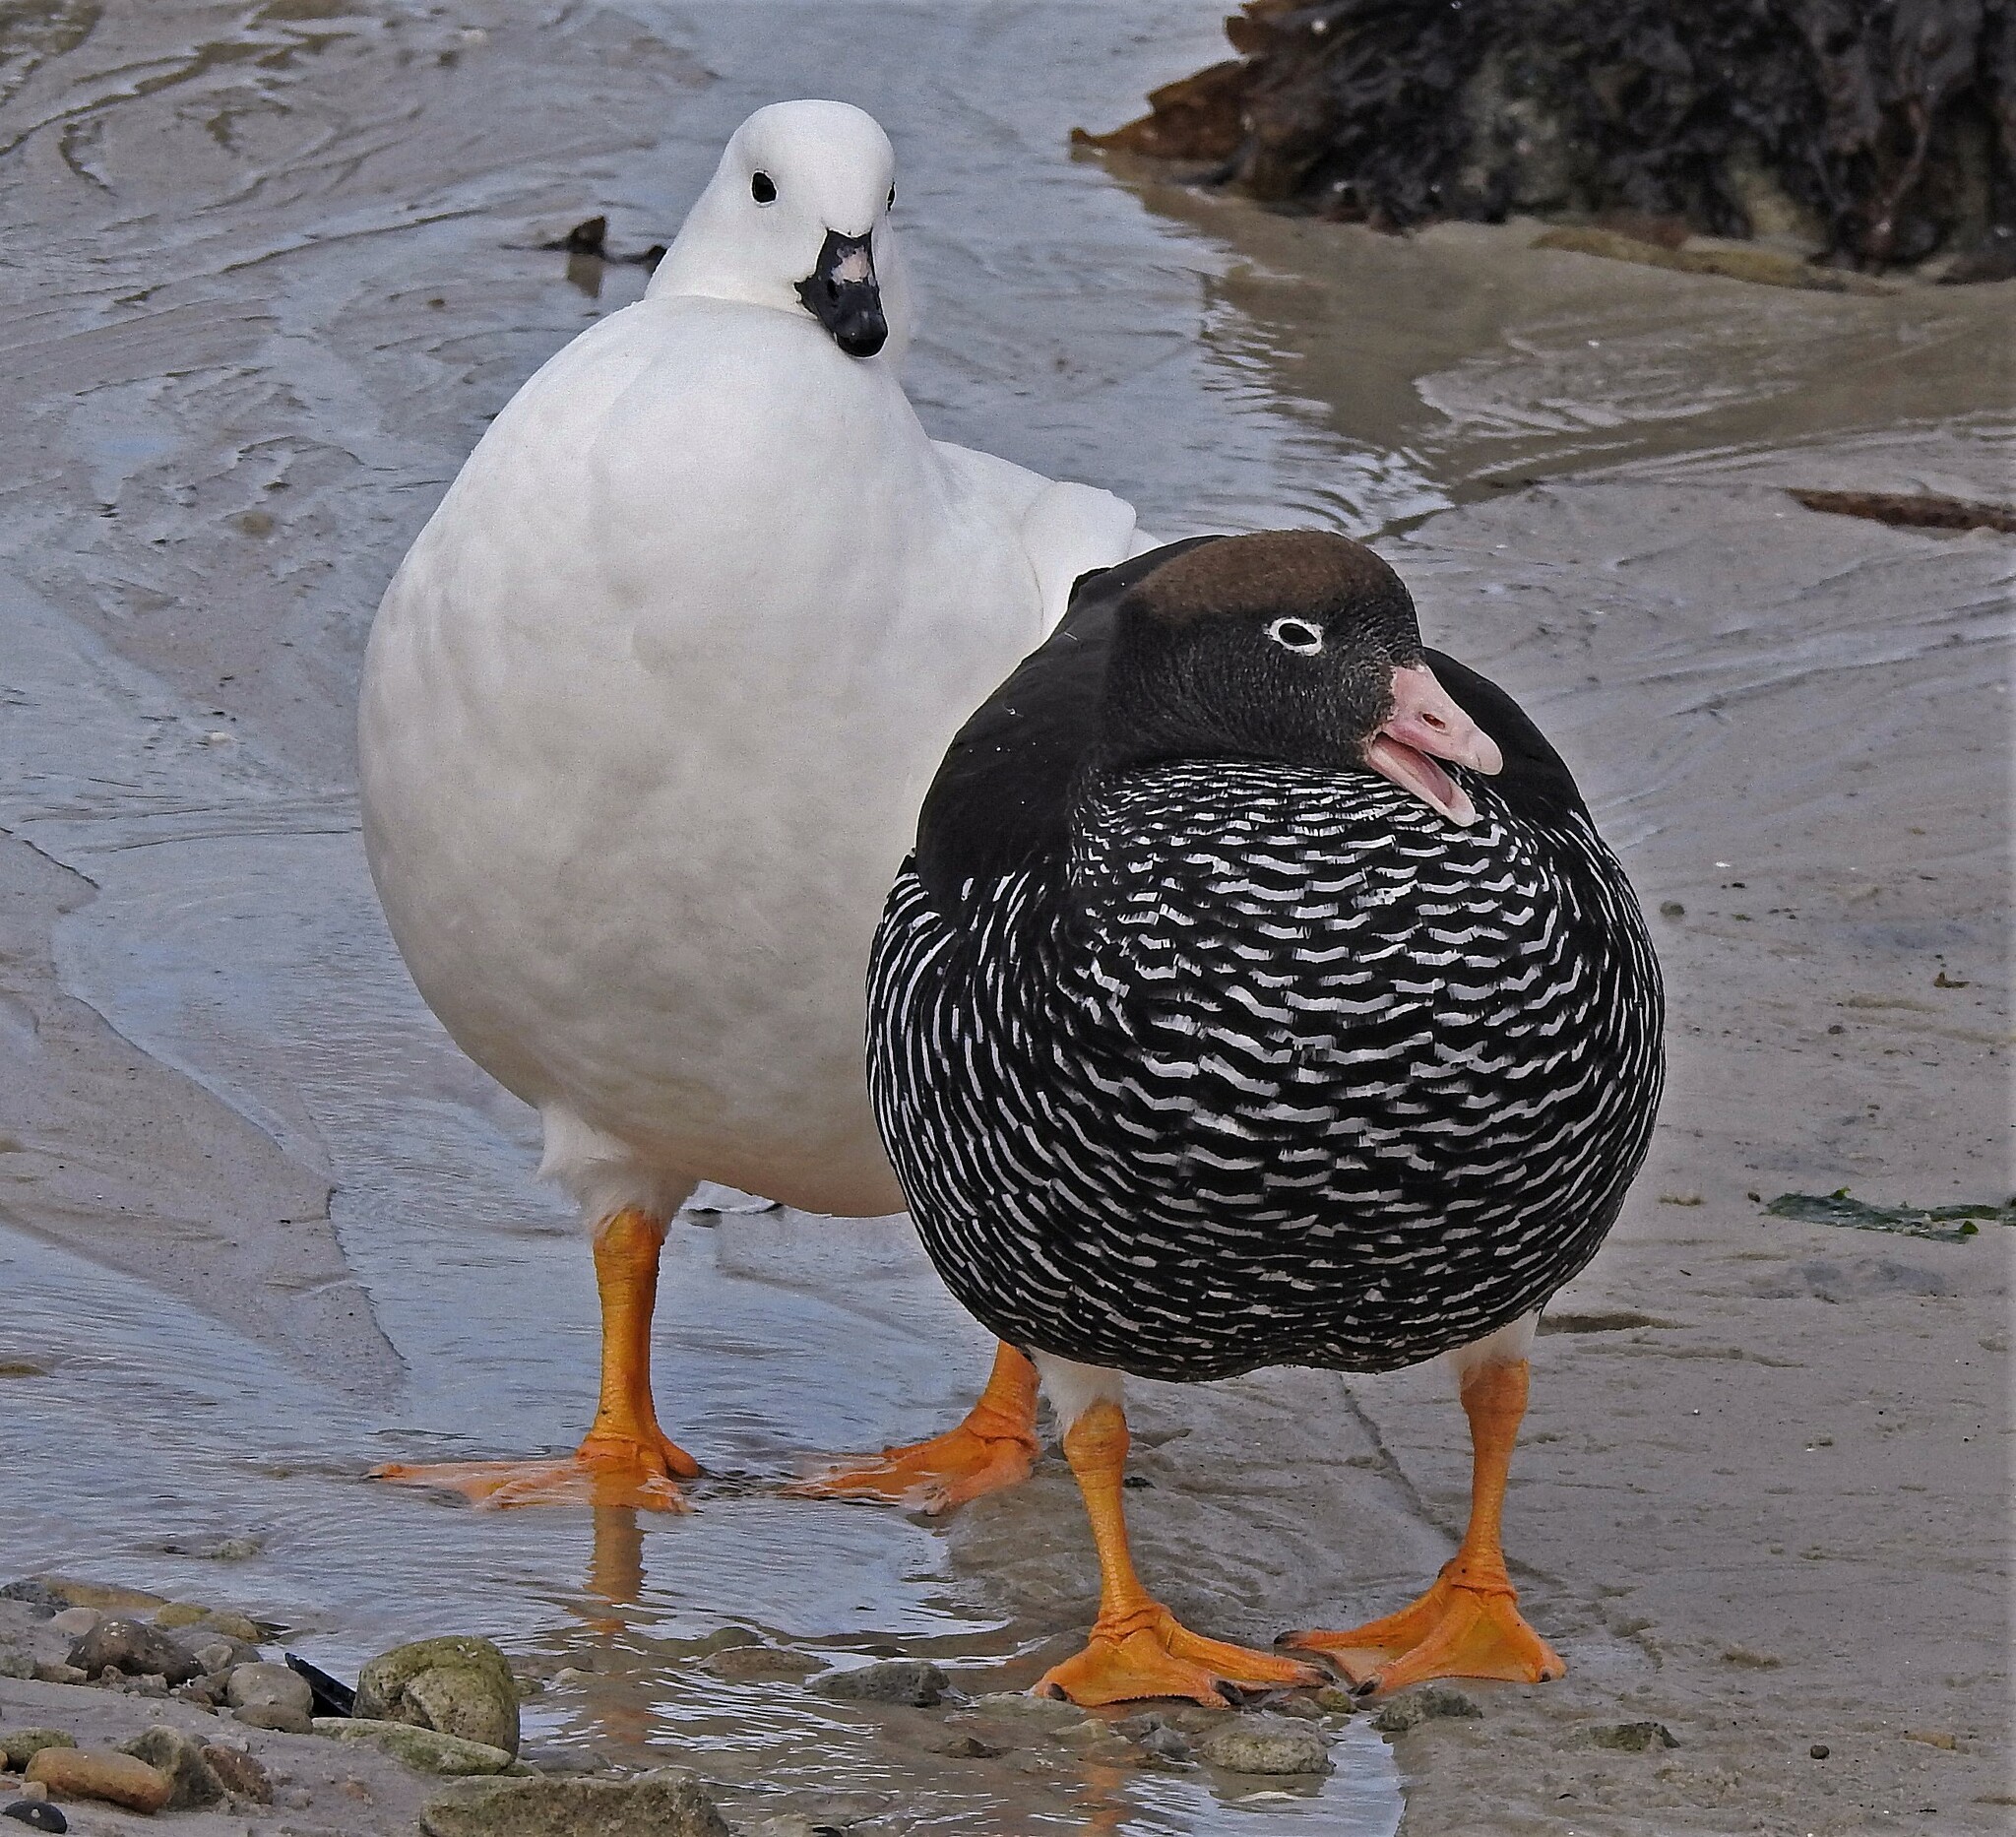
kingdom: Animalia
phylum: Chordata
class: Aves
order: Anseriformes
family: Anatidae
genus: Chloephaga
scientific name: Chloephaga hybrida
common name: Kelp goose
